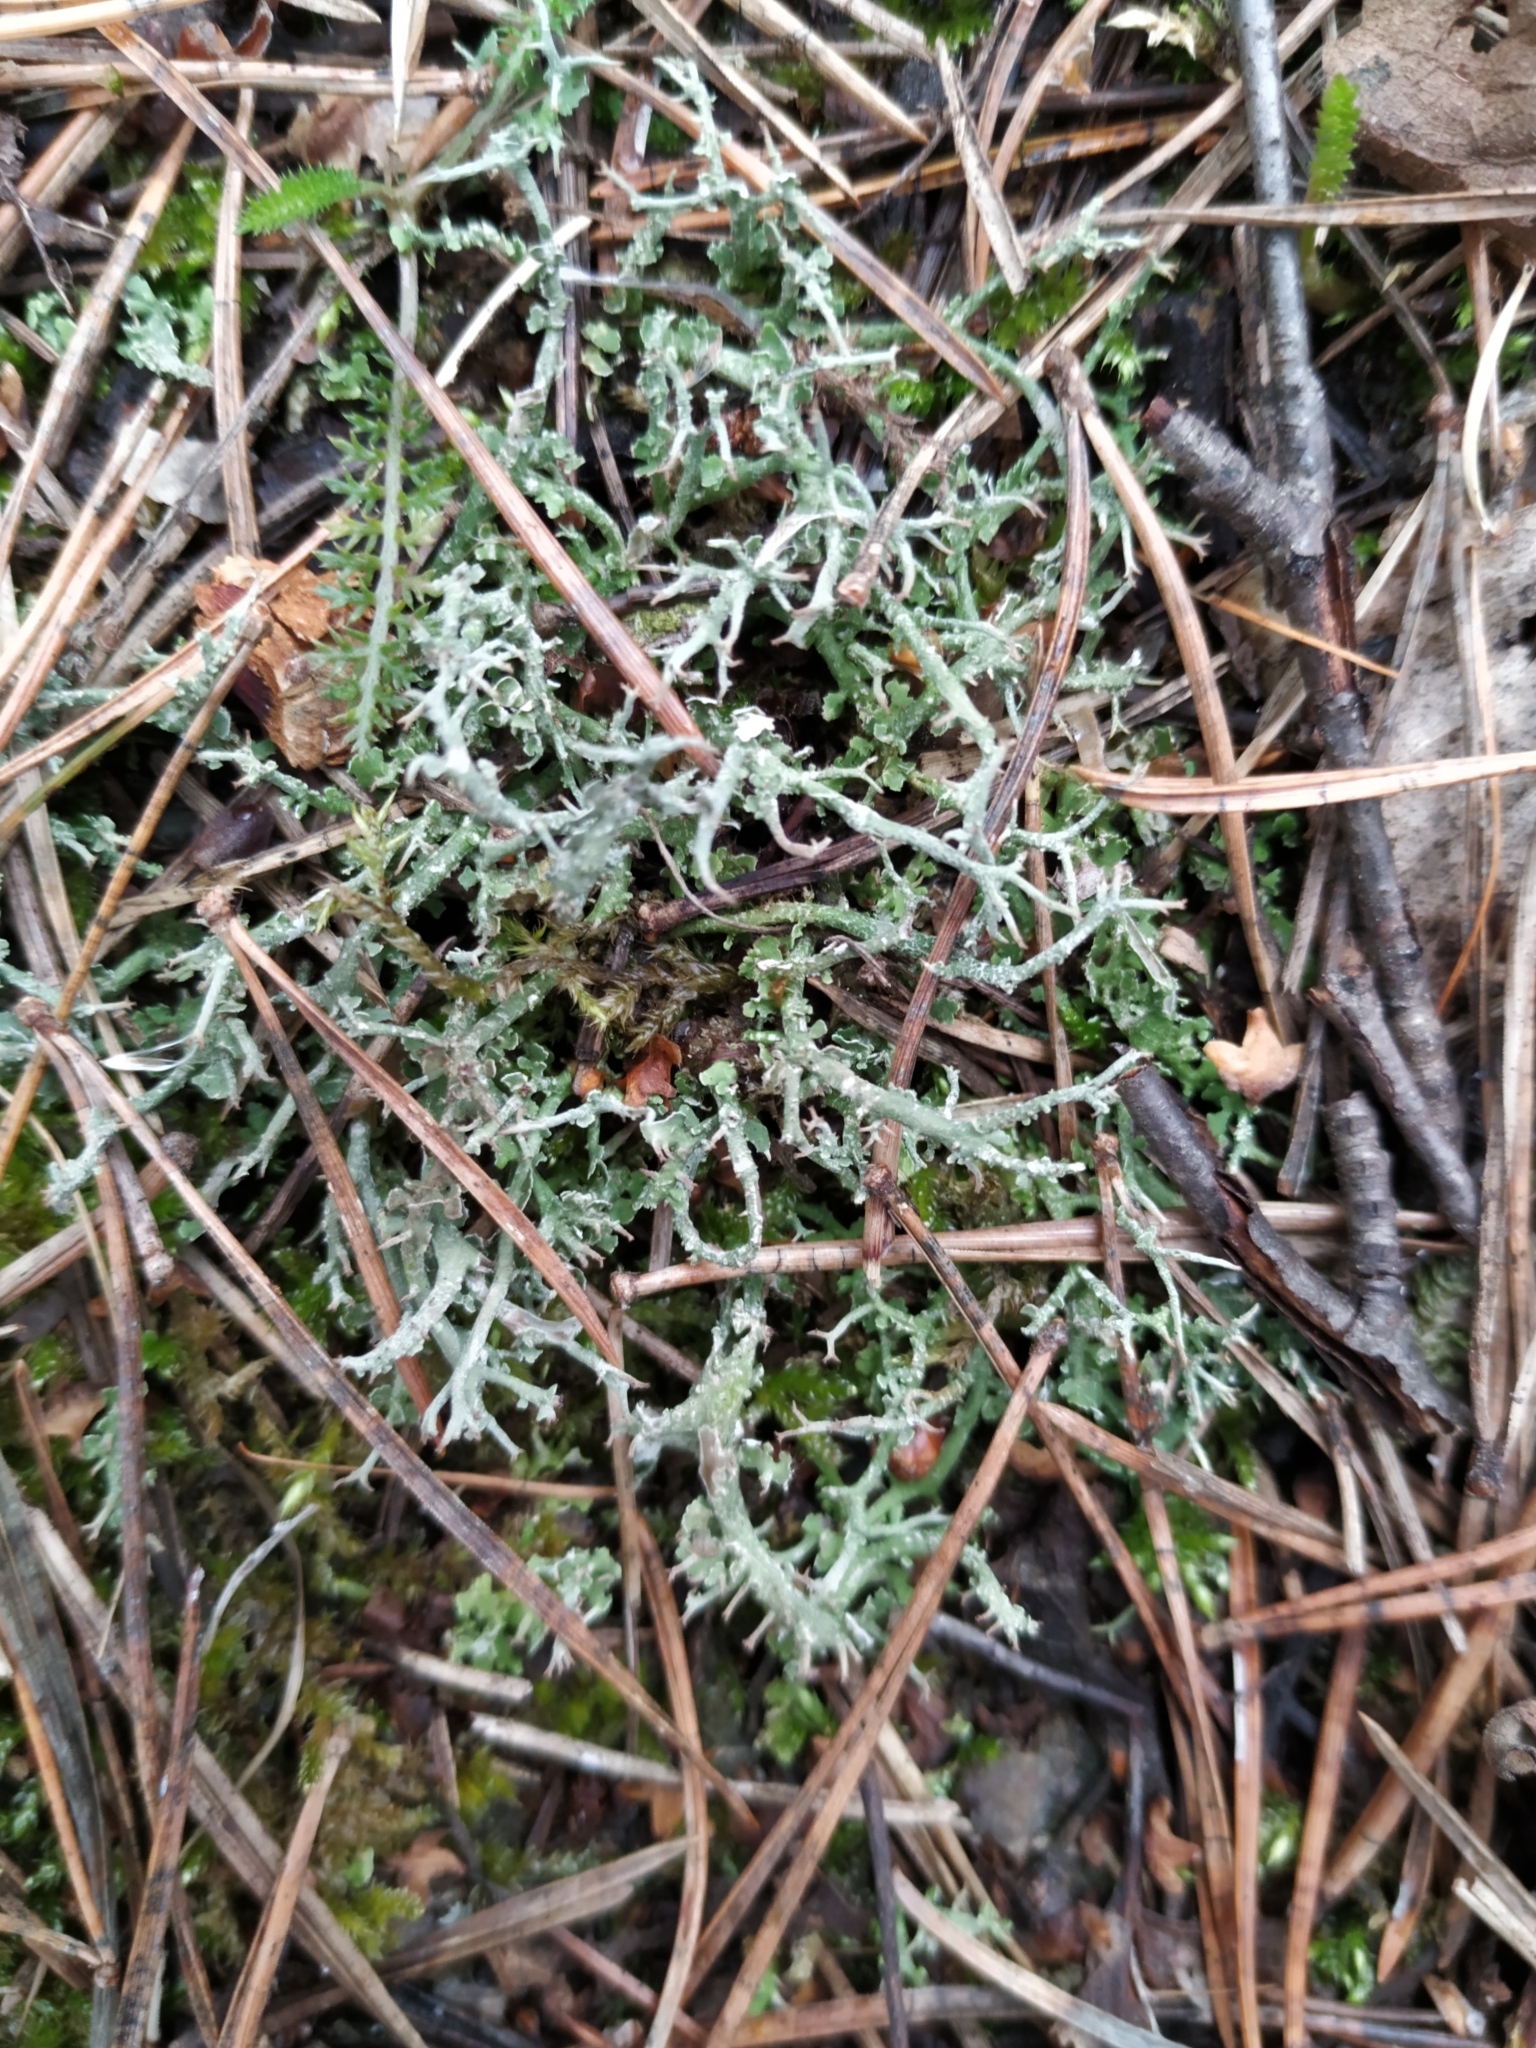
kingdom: Fungi
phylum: Ascomycota
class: Lecanoromycetes
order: Lecanorales
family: Cladoniaceae
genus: Cladonia
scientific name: Cladonia furcata
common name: Many-forked cladonia
